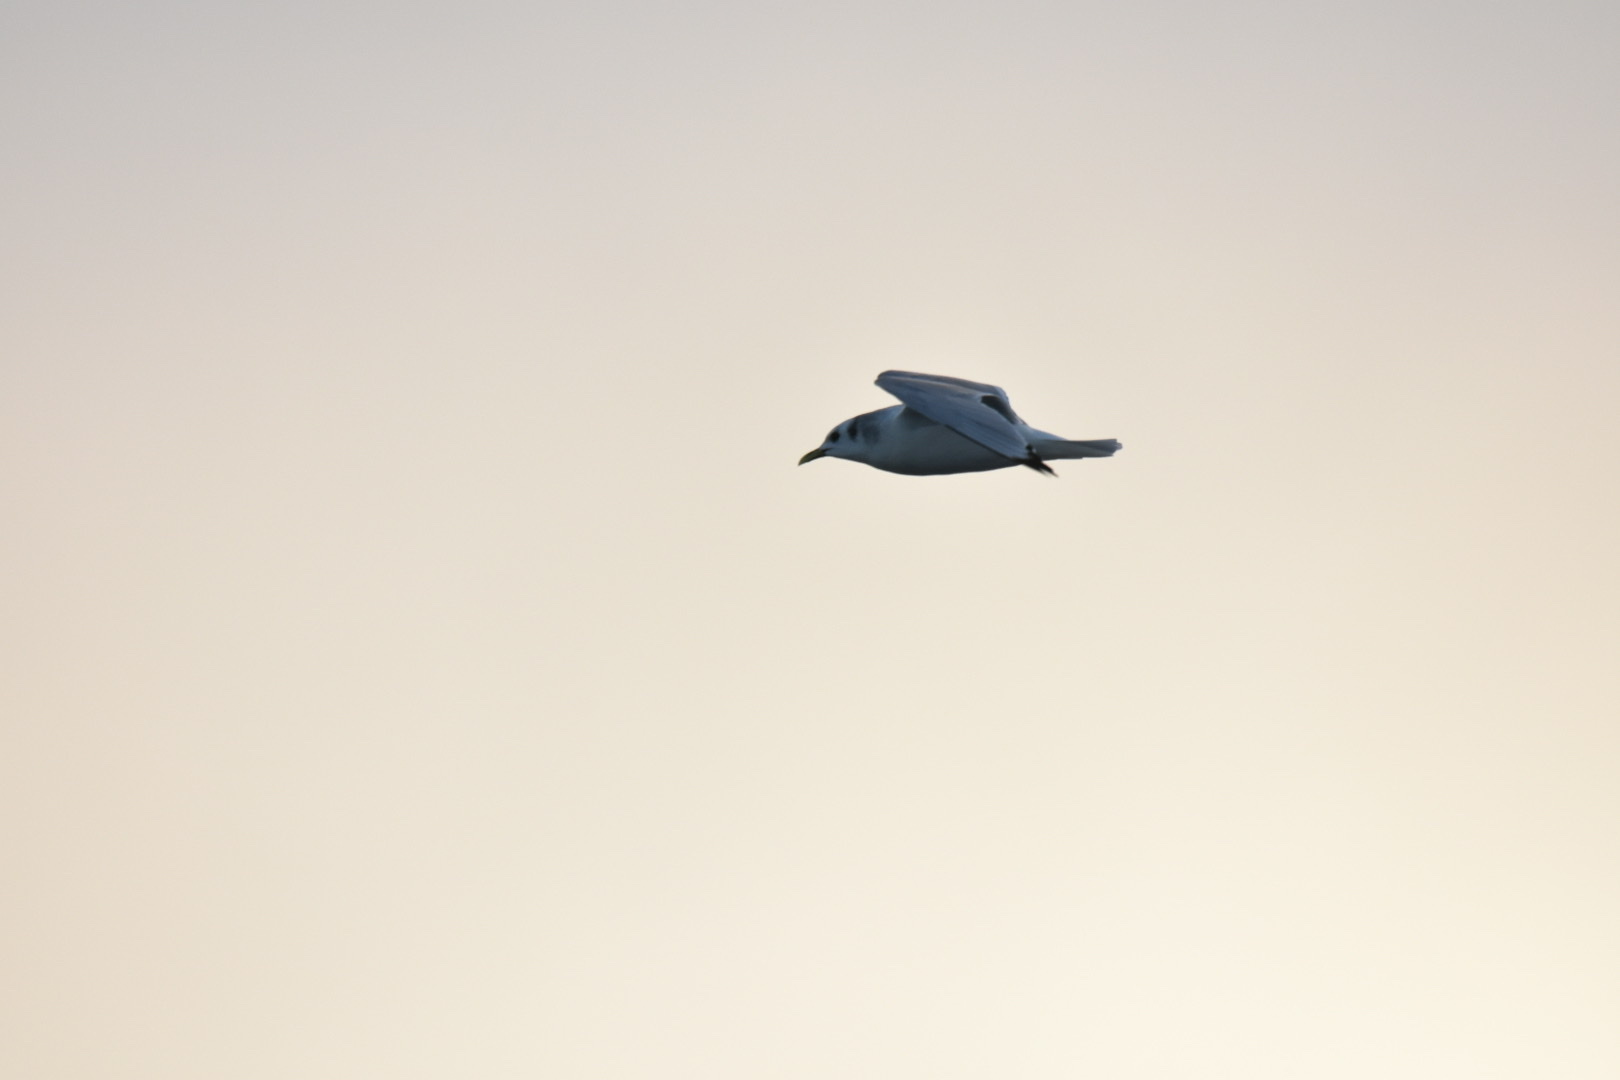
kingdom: Animalia
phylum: Chordata
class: Aves
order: Charadriiformes
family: Laridae
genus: Rissa
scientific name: Rissa tridactyla
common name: Black-legged kittiwake
